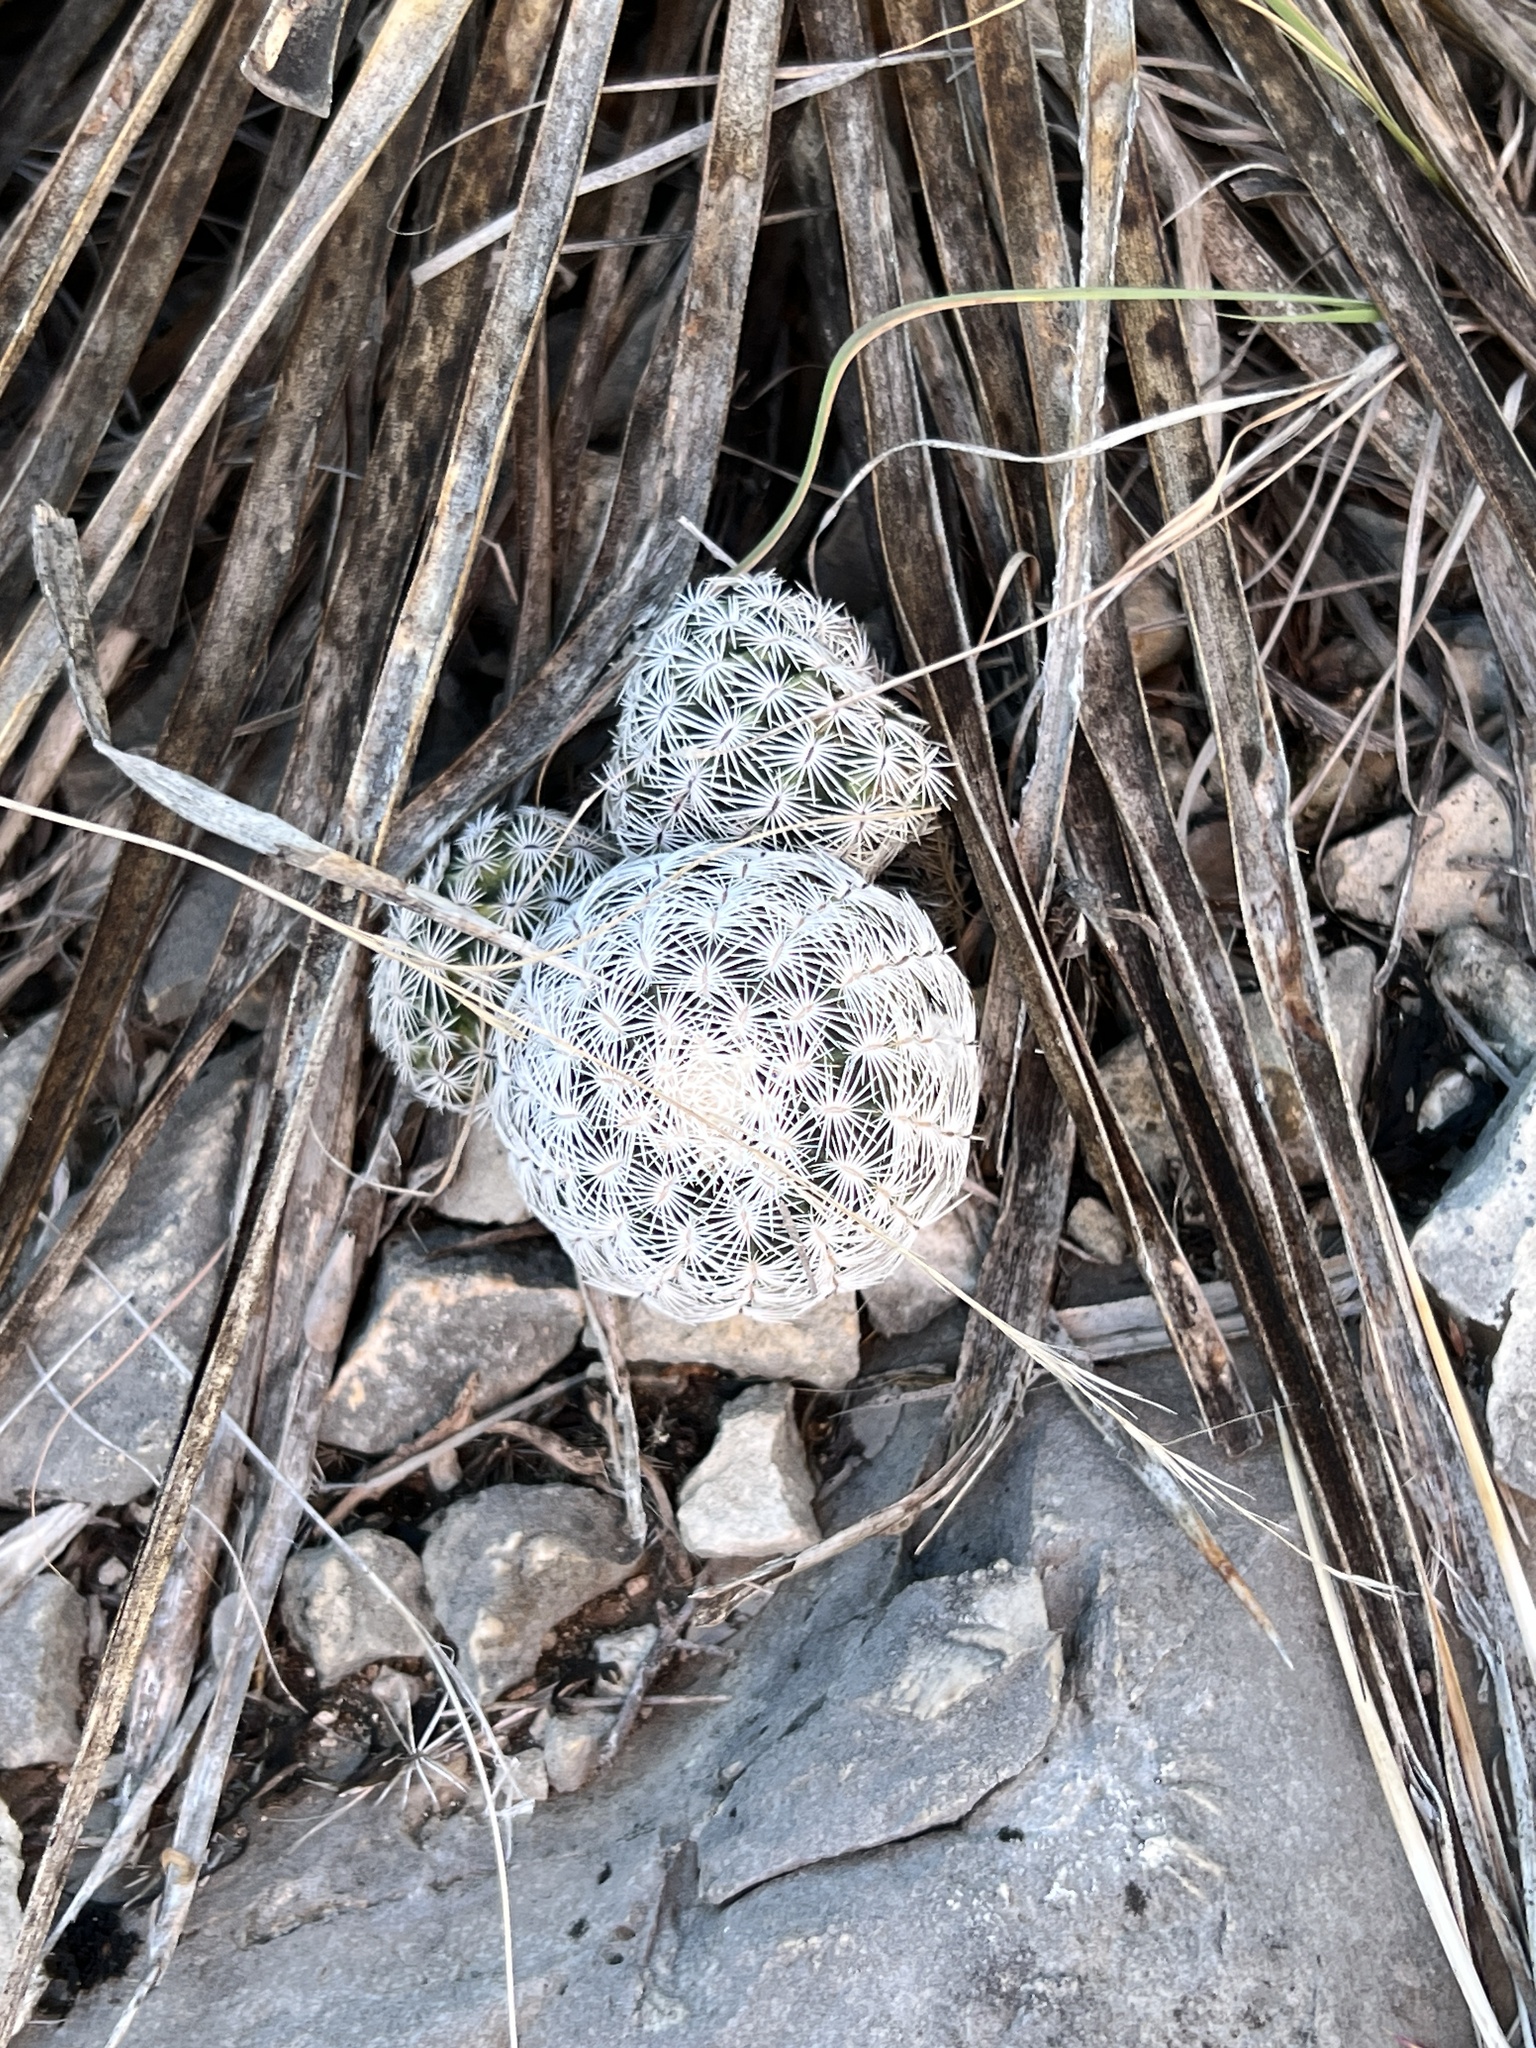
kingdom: Plantae
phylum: Tracheophyta
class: Magnoliopsida
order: Caryophyllales
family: Cactaceae
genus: Echinocereus
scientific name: Echinocereus reichenbachii
